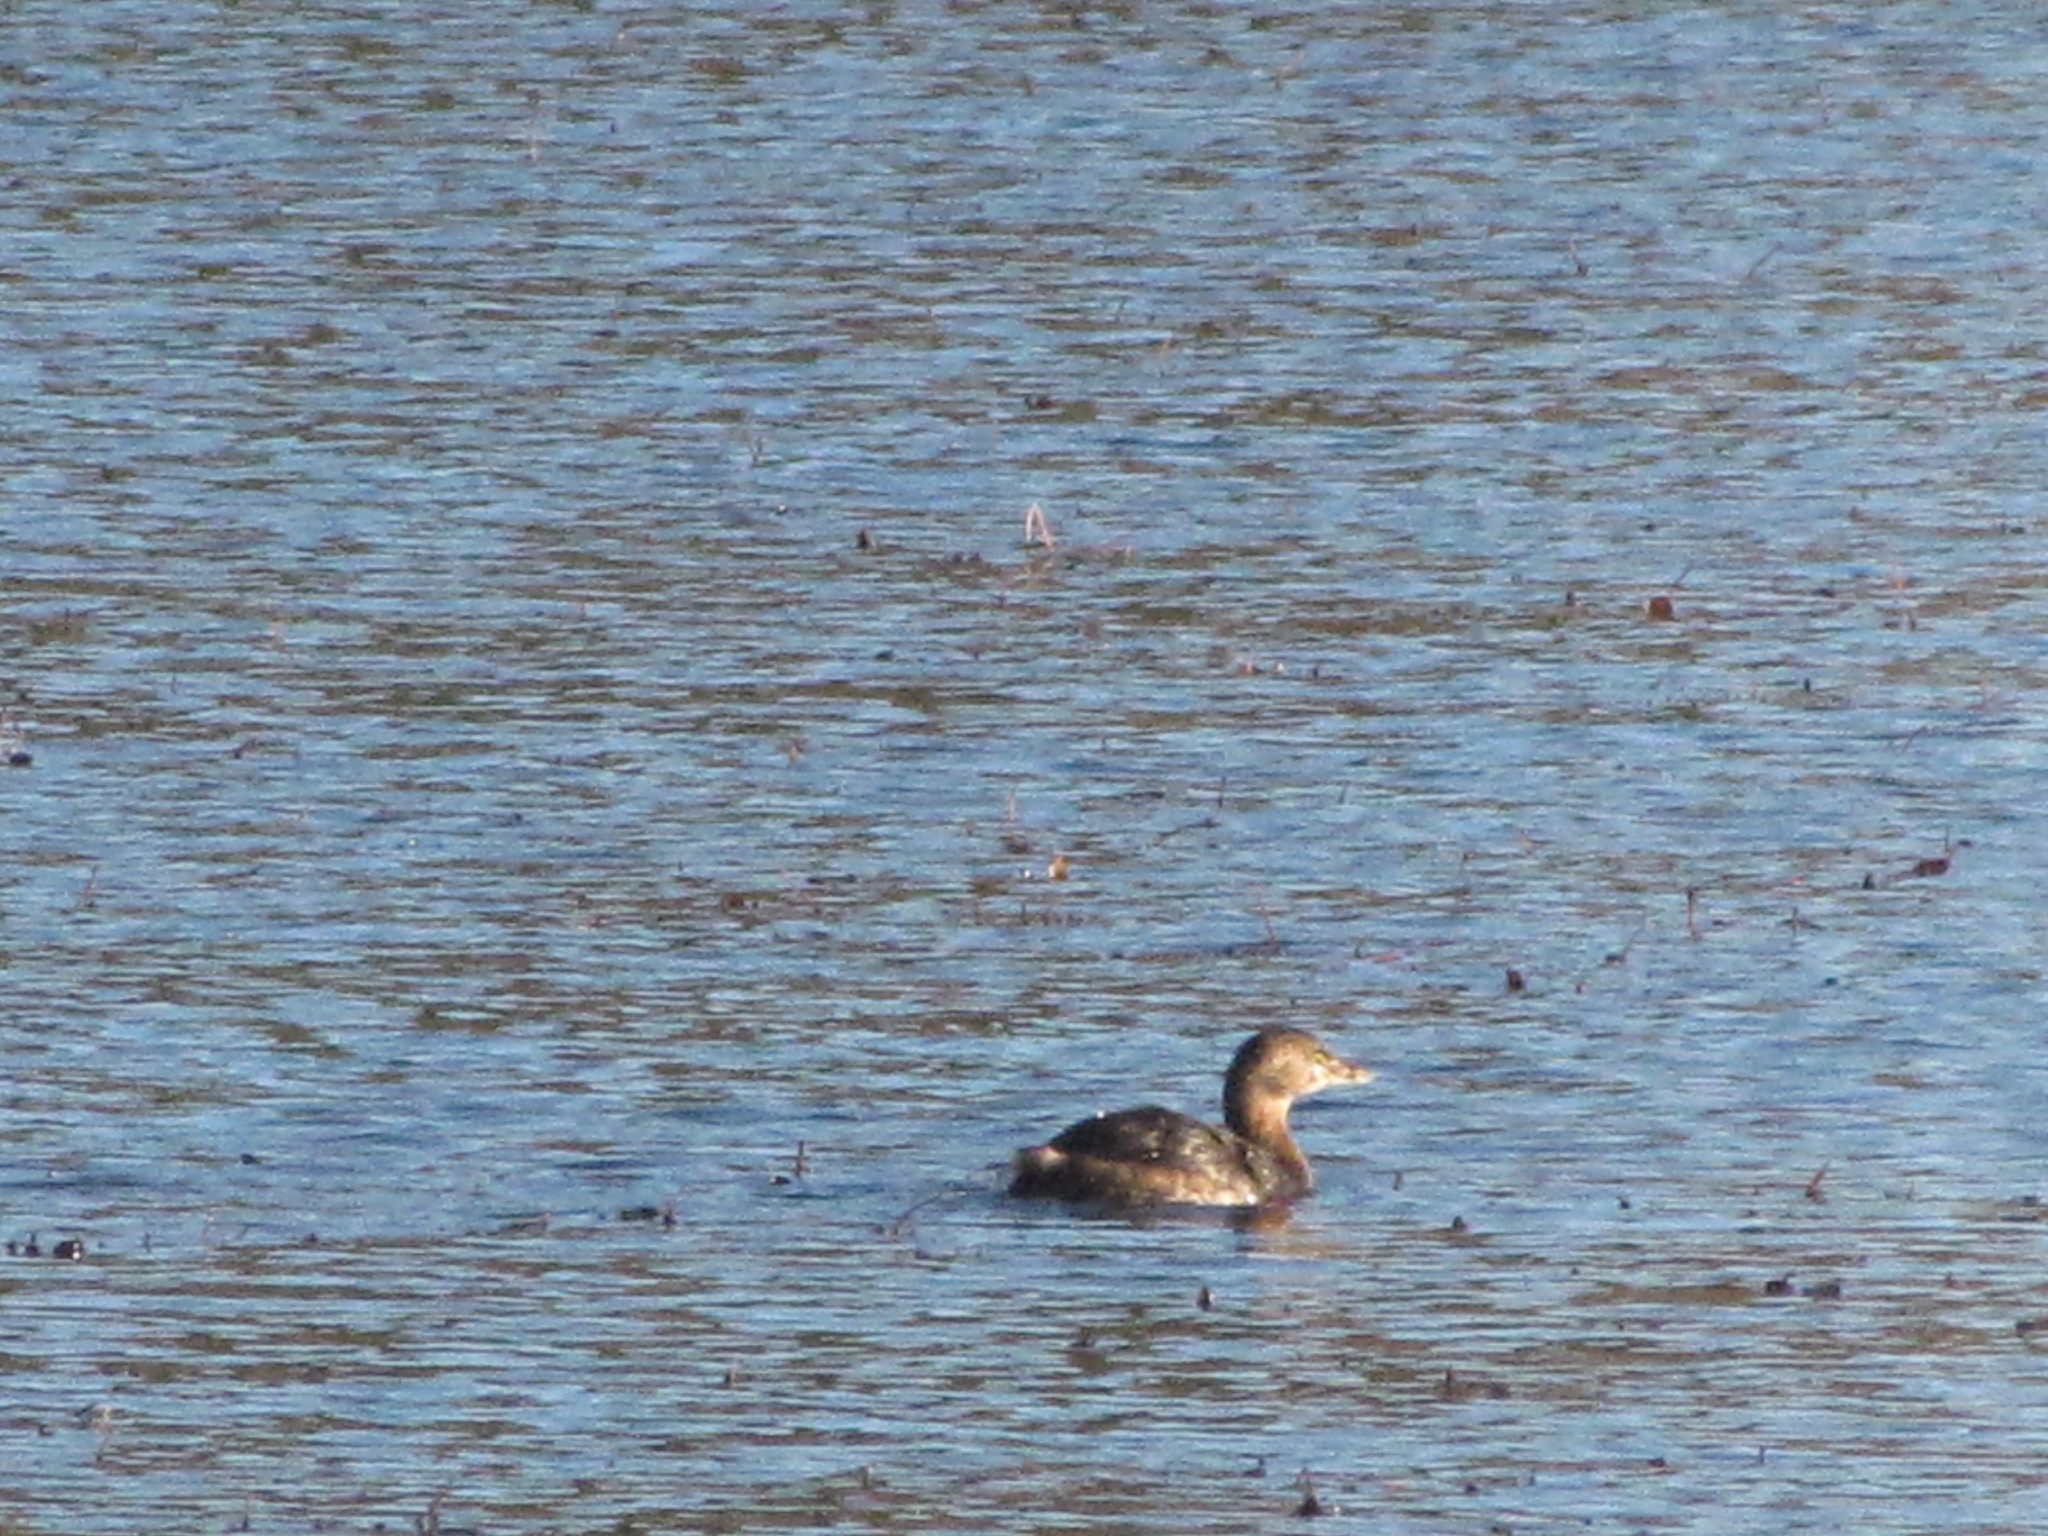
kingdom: Animalia
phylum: Chordata
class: Aves
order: Podicipediformes
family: Podicipedidae
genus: Podilymbus
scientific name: Podilymbus podiceps
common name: Pied-billed grebe
